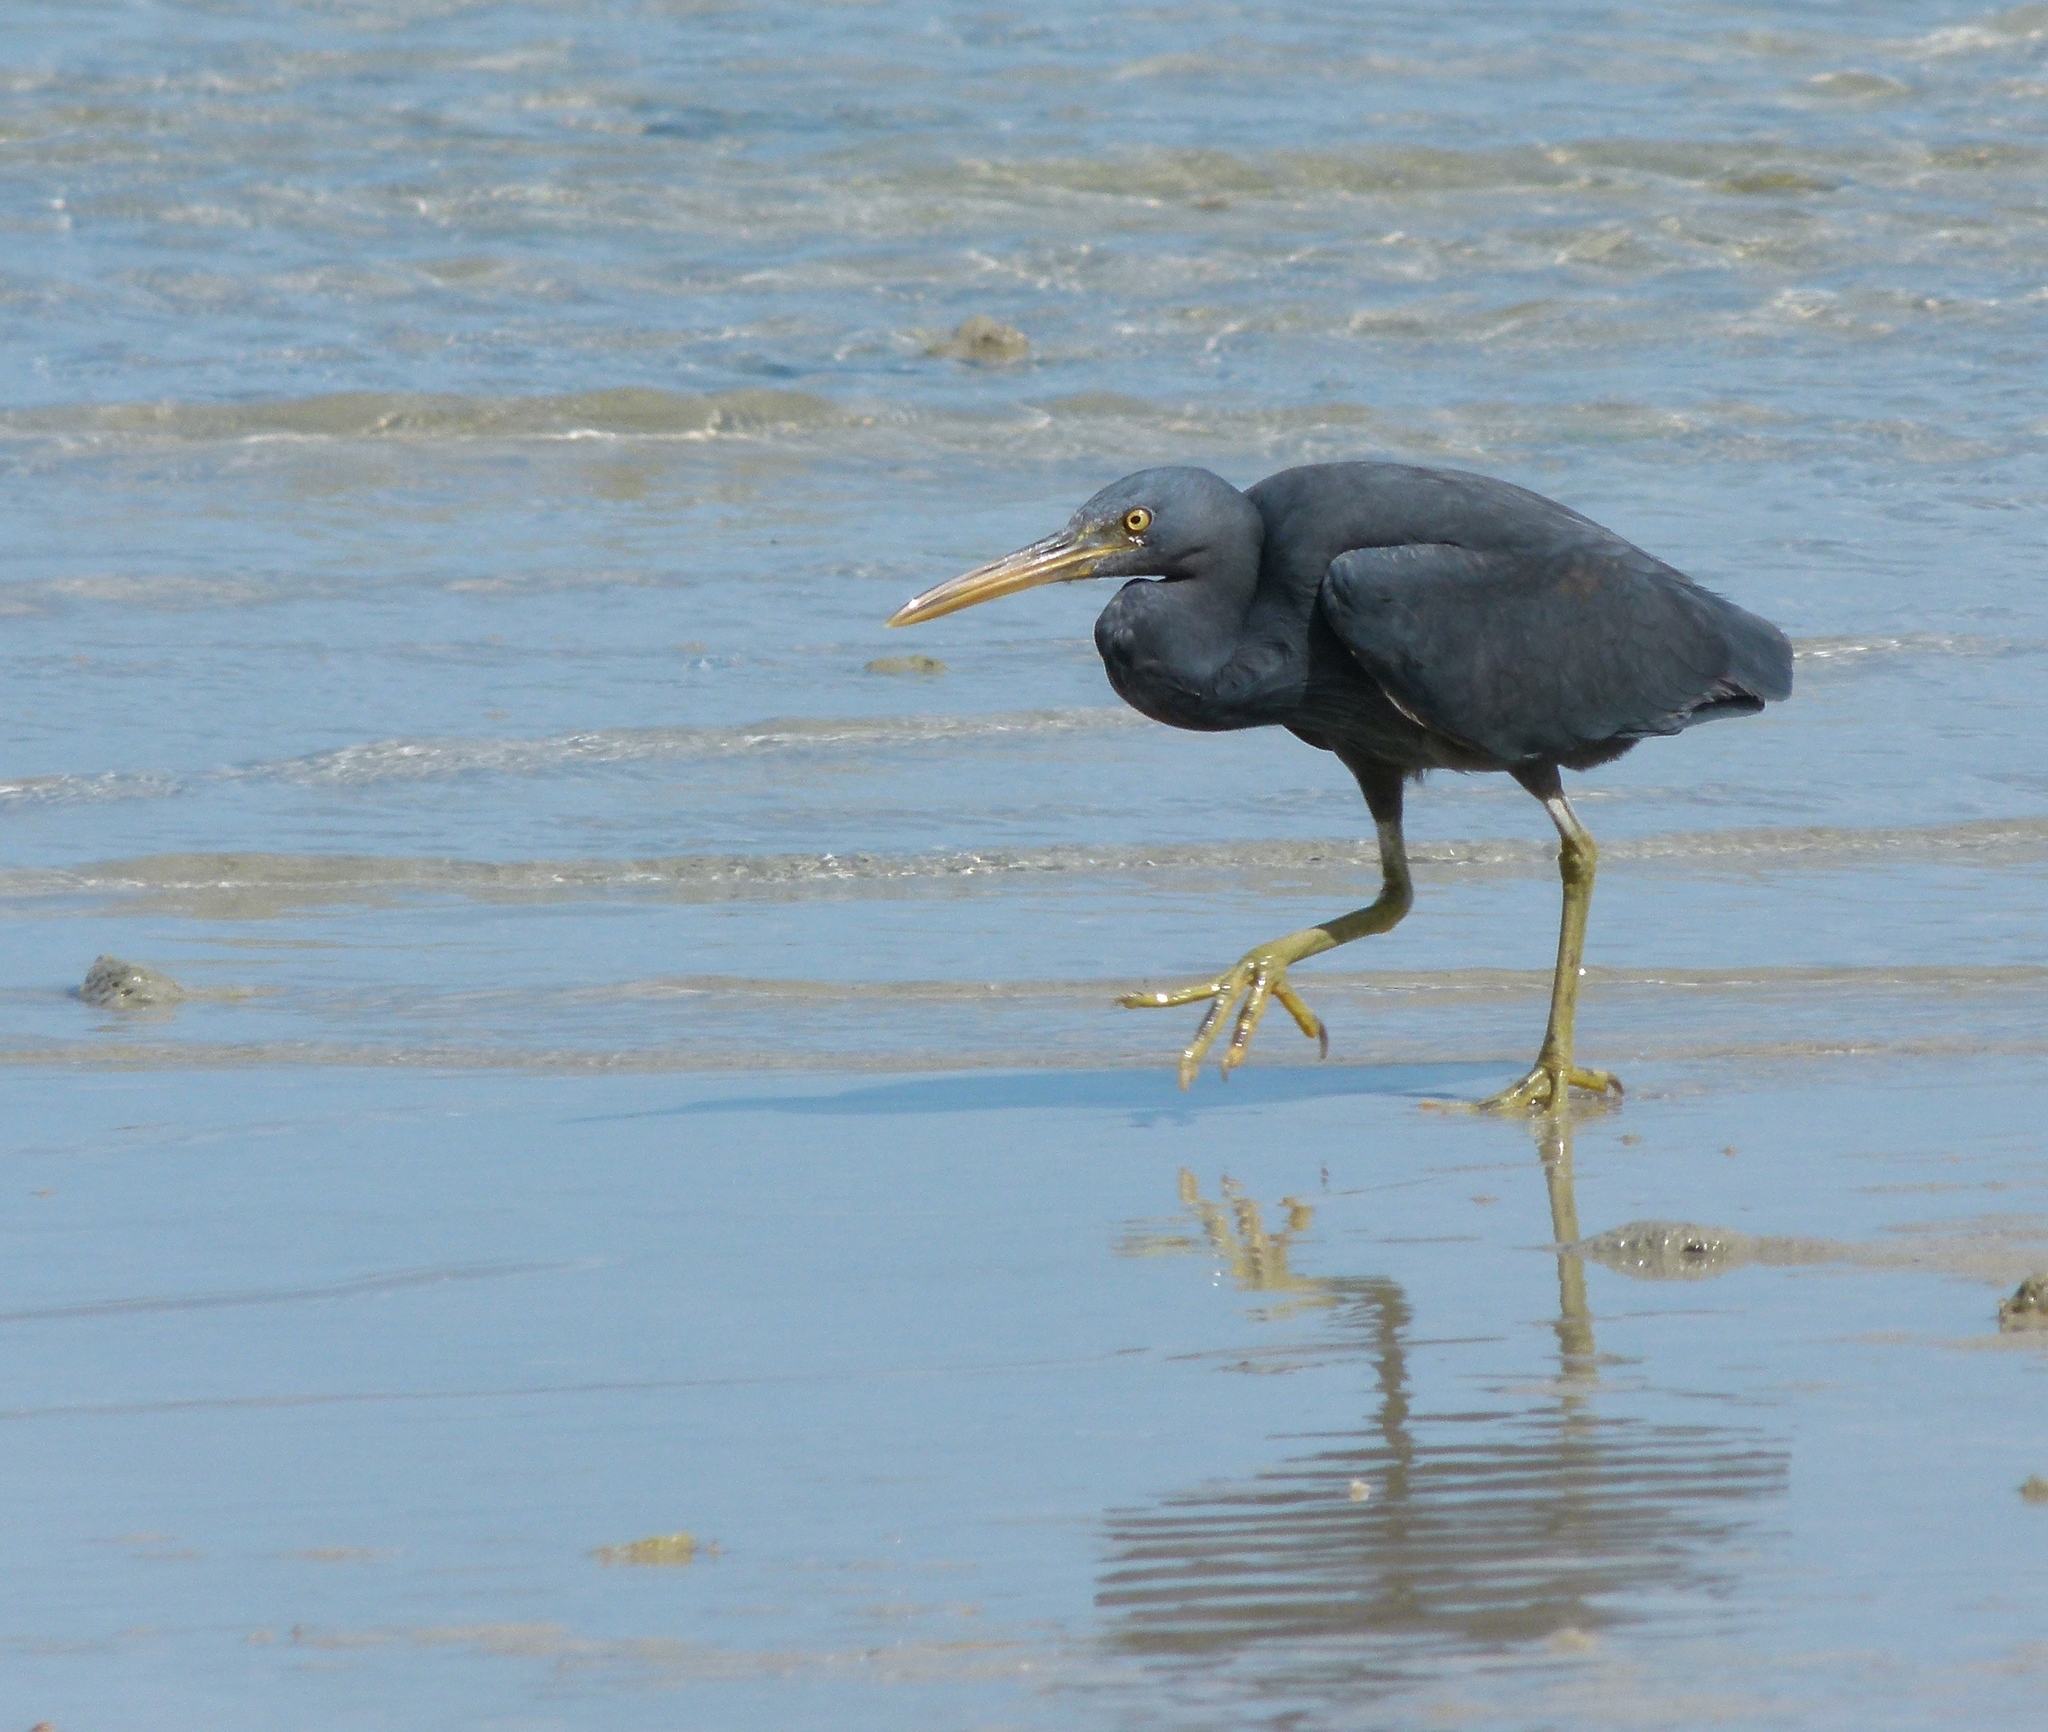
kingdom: Animalia
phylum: Chordata
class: Aves
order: Pelecaniformes
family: Ardeidae
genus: Egretta
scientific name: Egretta sacra
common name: Pacific reef heron
